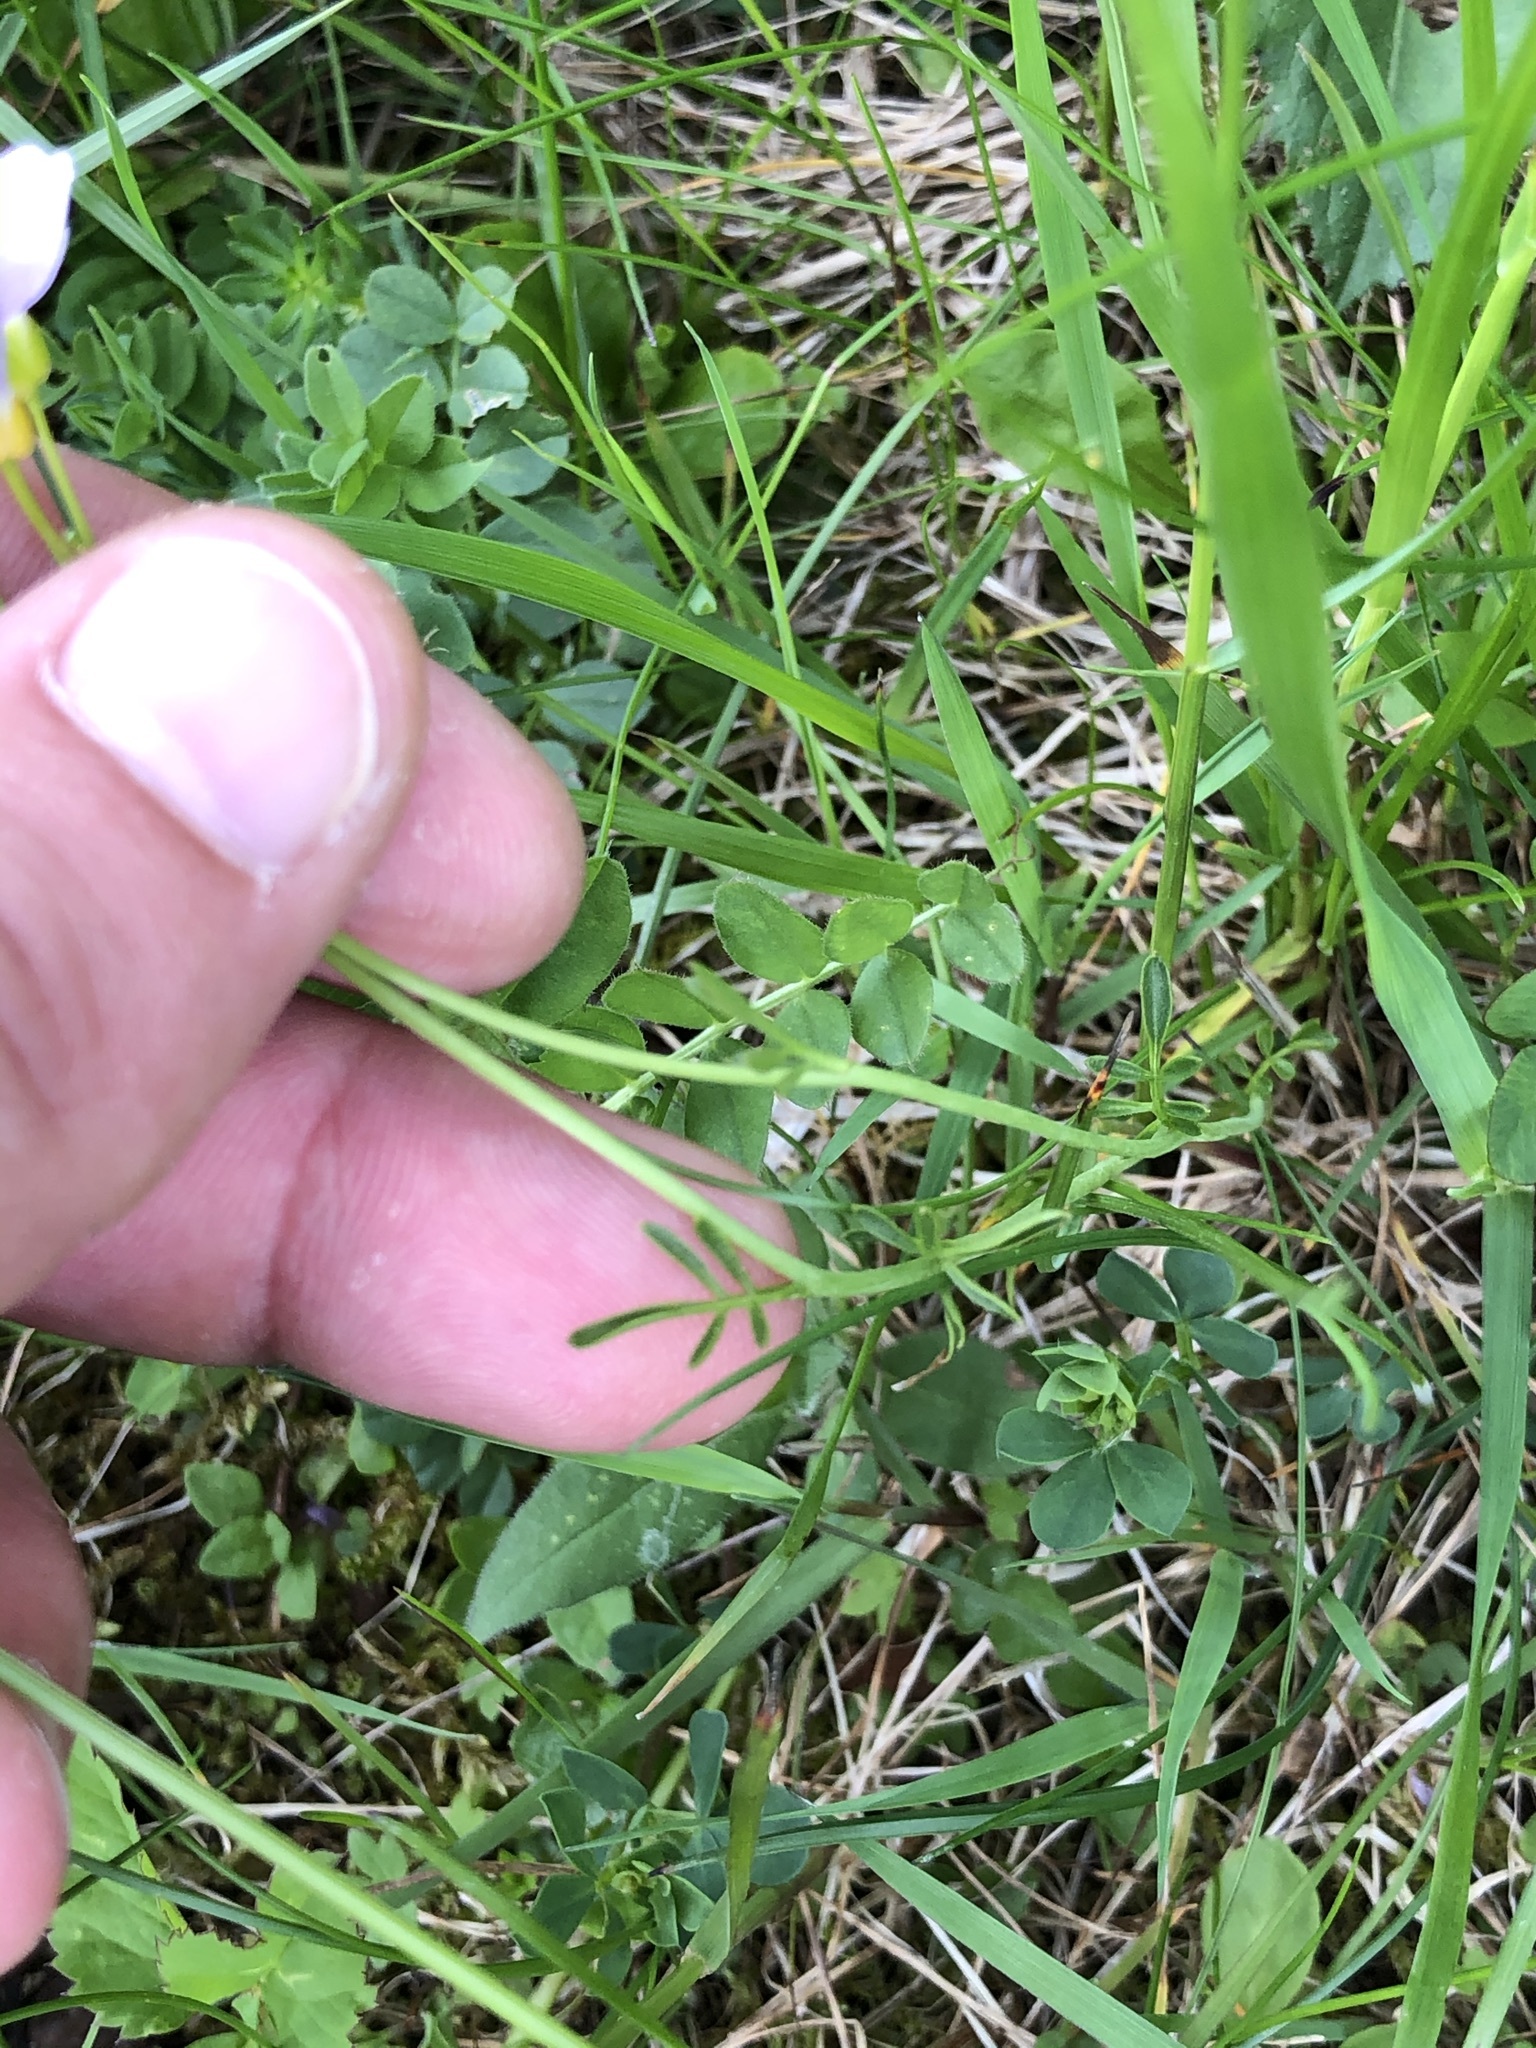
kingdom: Plantae
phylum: Tracheophyta
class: Magnoliopsida
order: Brassicales
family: Brassicaceae
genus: Cardamine
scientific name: Cardamine pratensis
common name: Cuckoo flower
